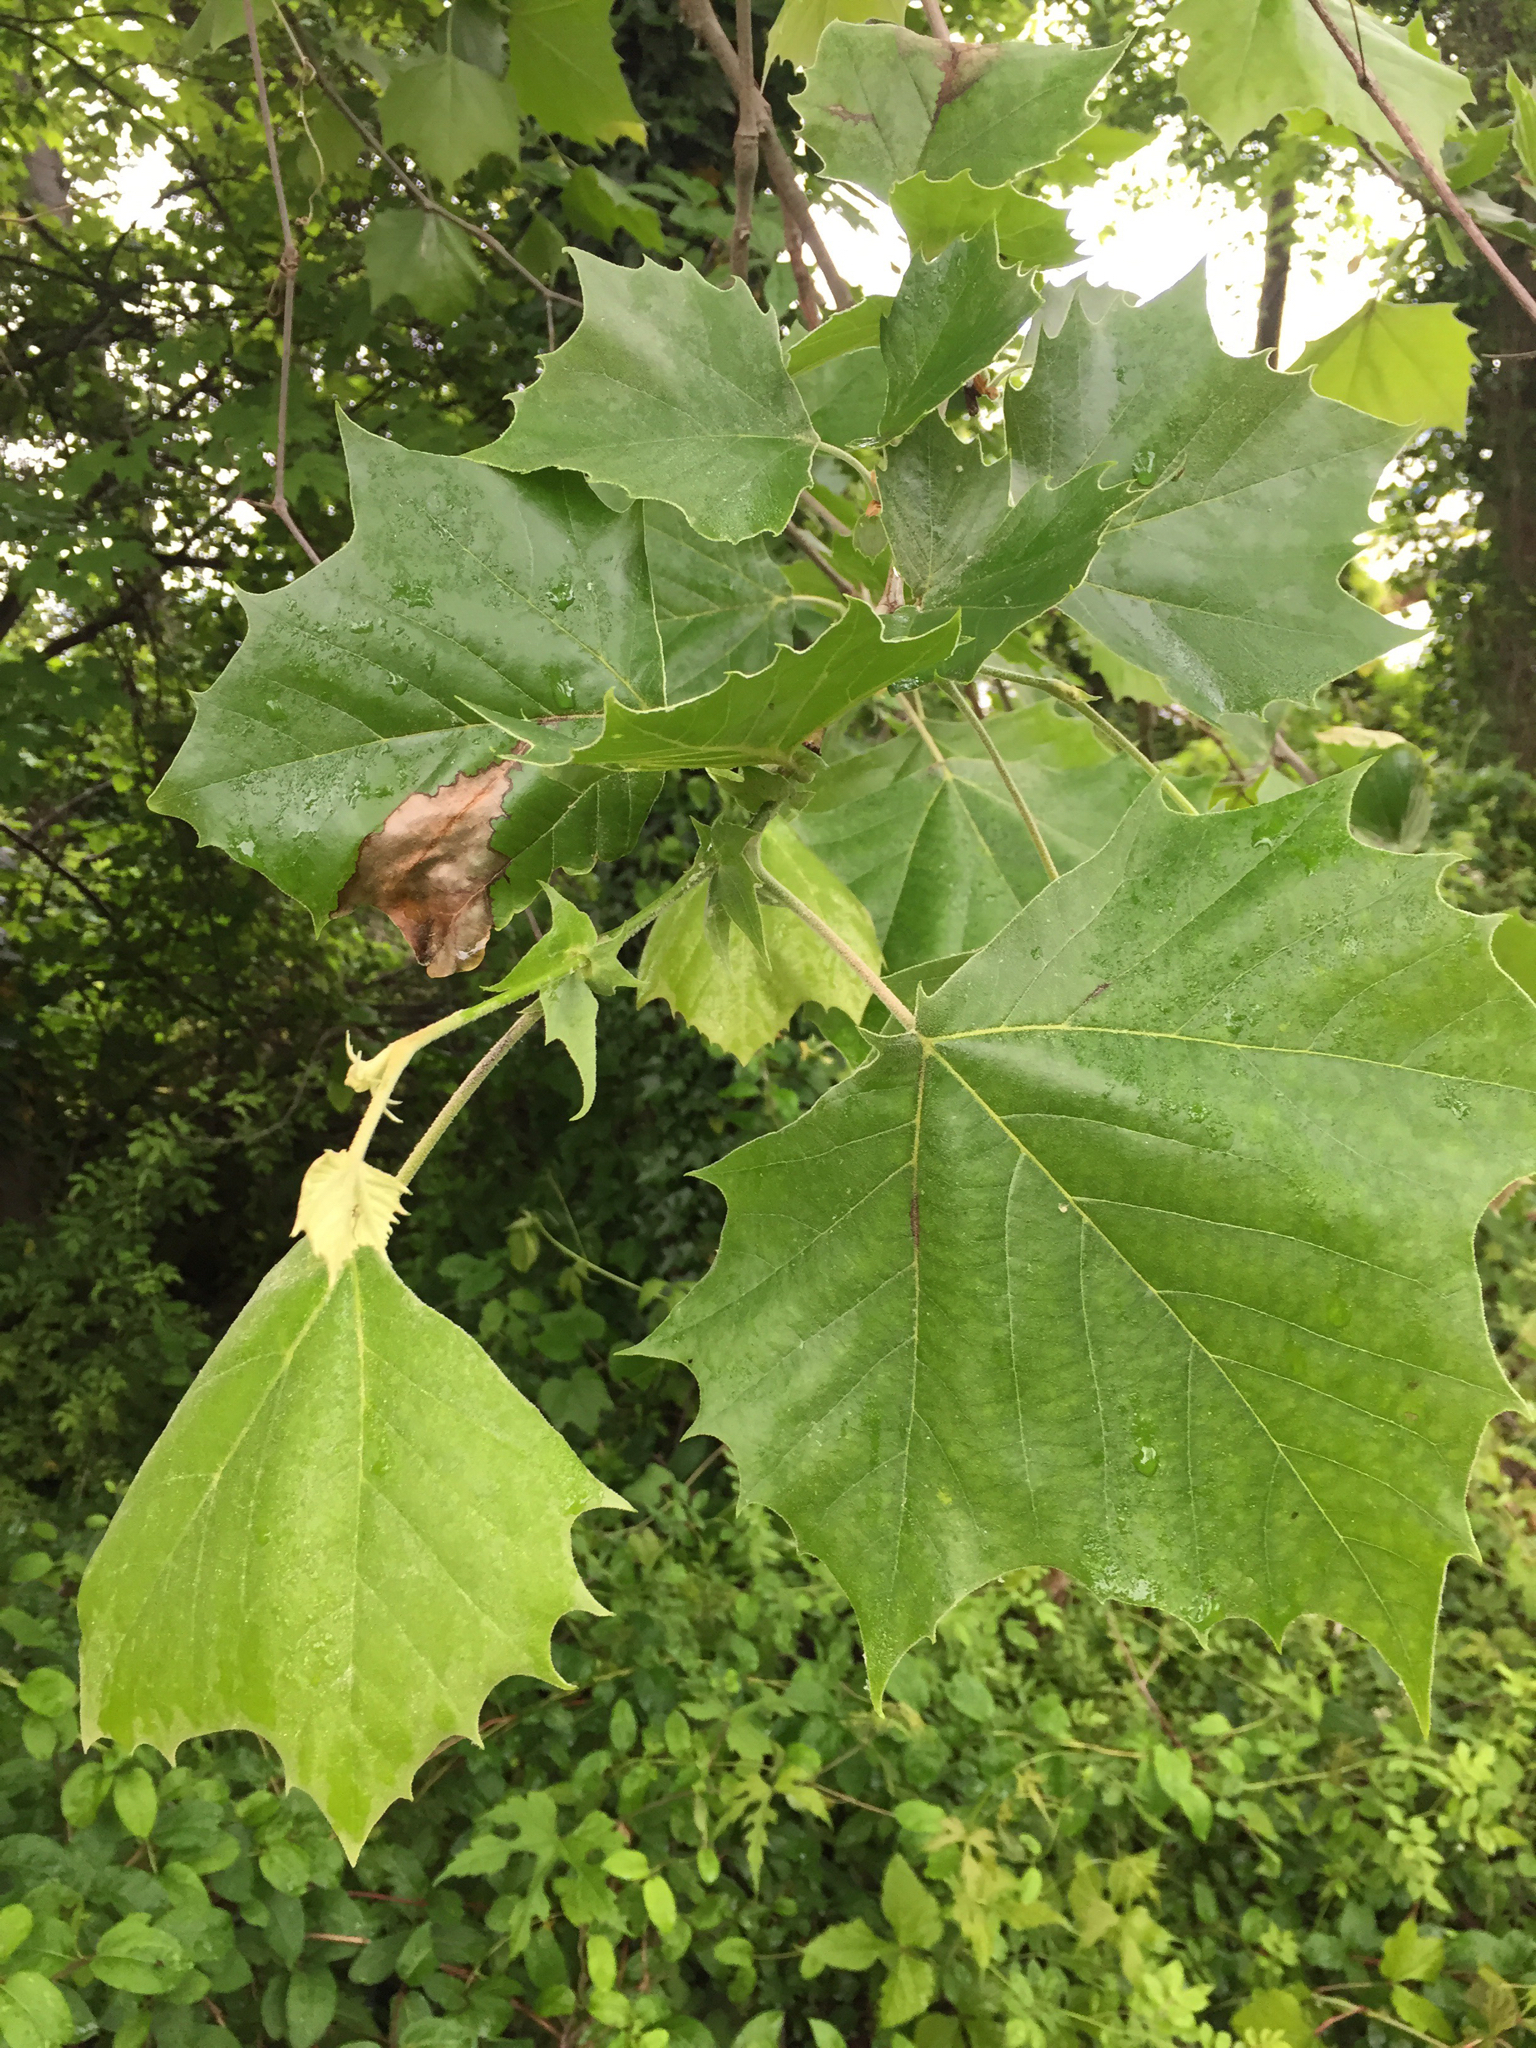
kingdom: Plantae
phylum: Tracheophyta
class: Magnoliopsida
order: Proteales
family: Platanaceae
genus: Platanus
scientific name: Platanus occidentalis
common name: American sycamore
